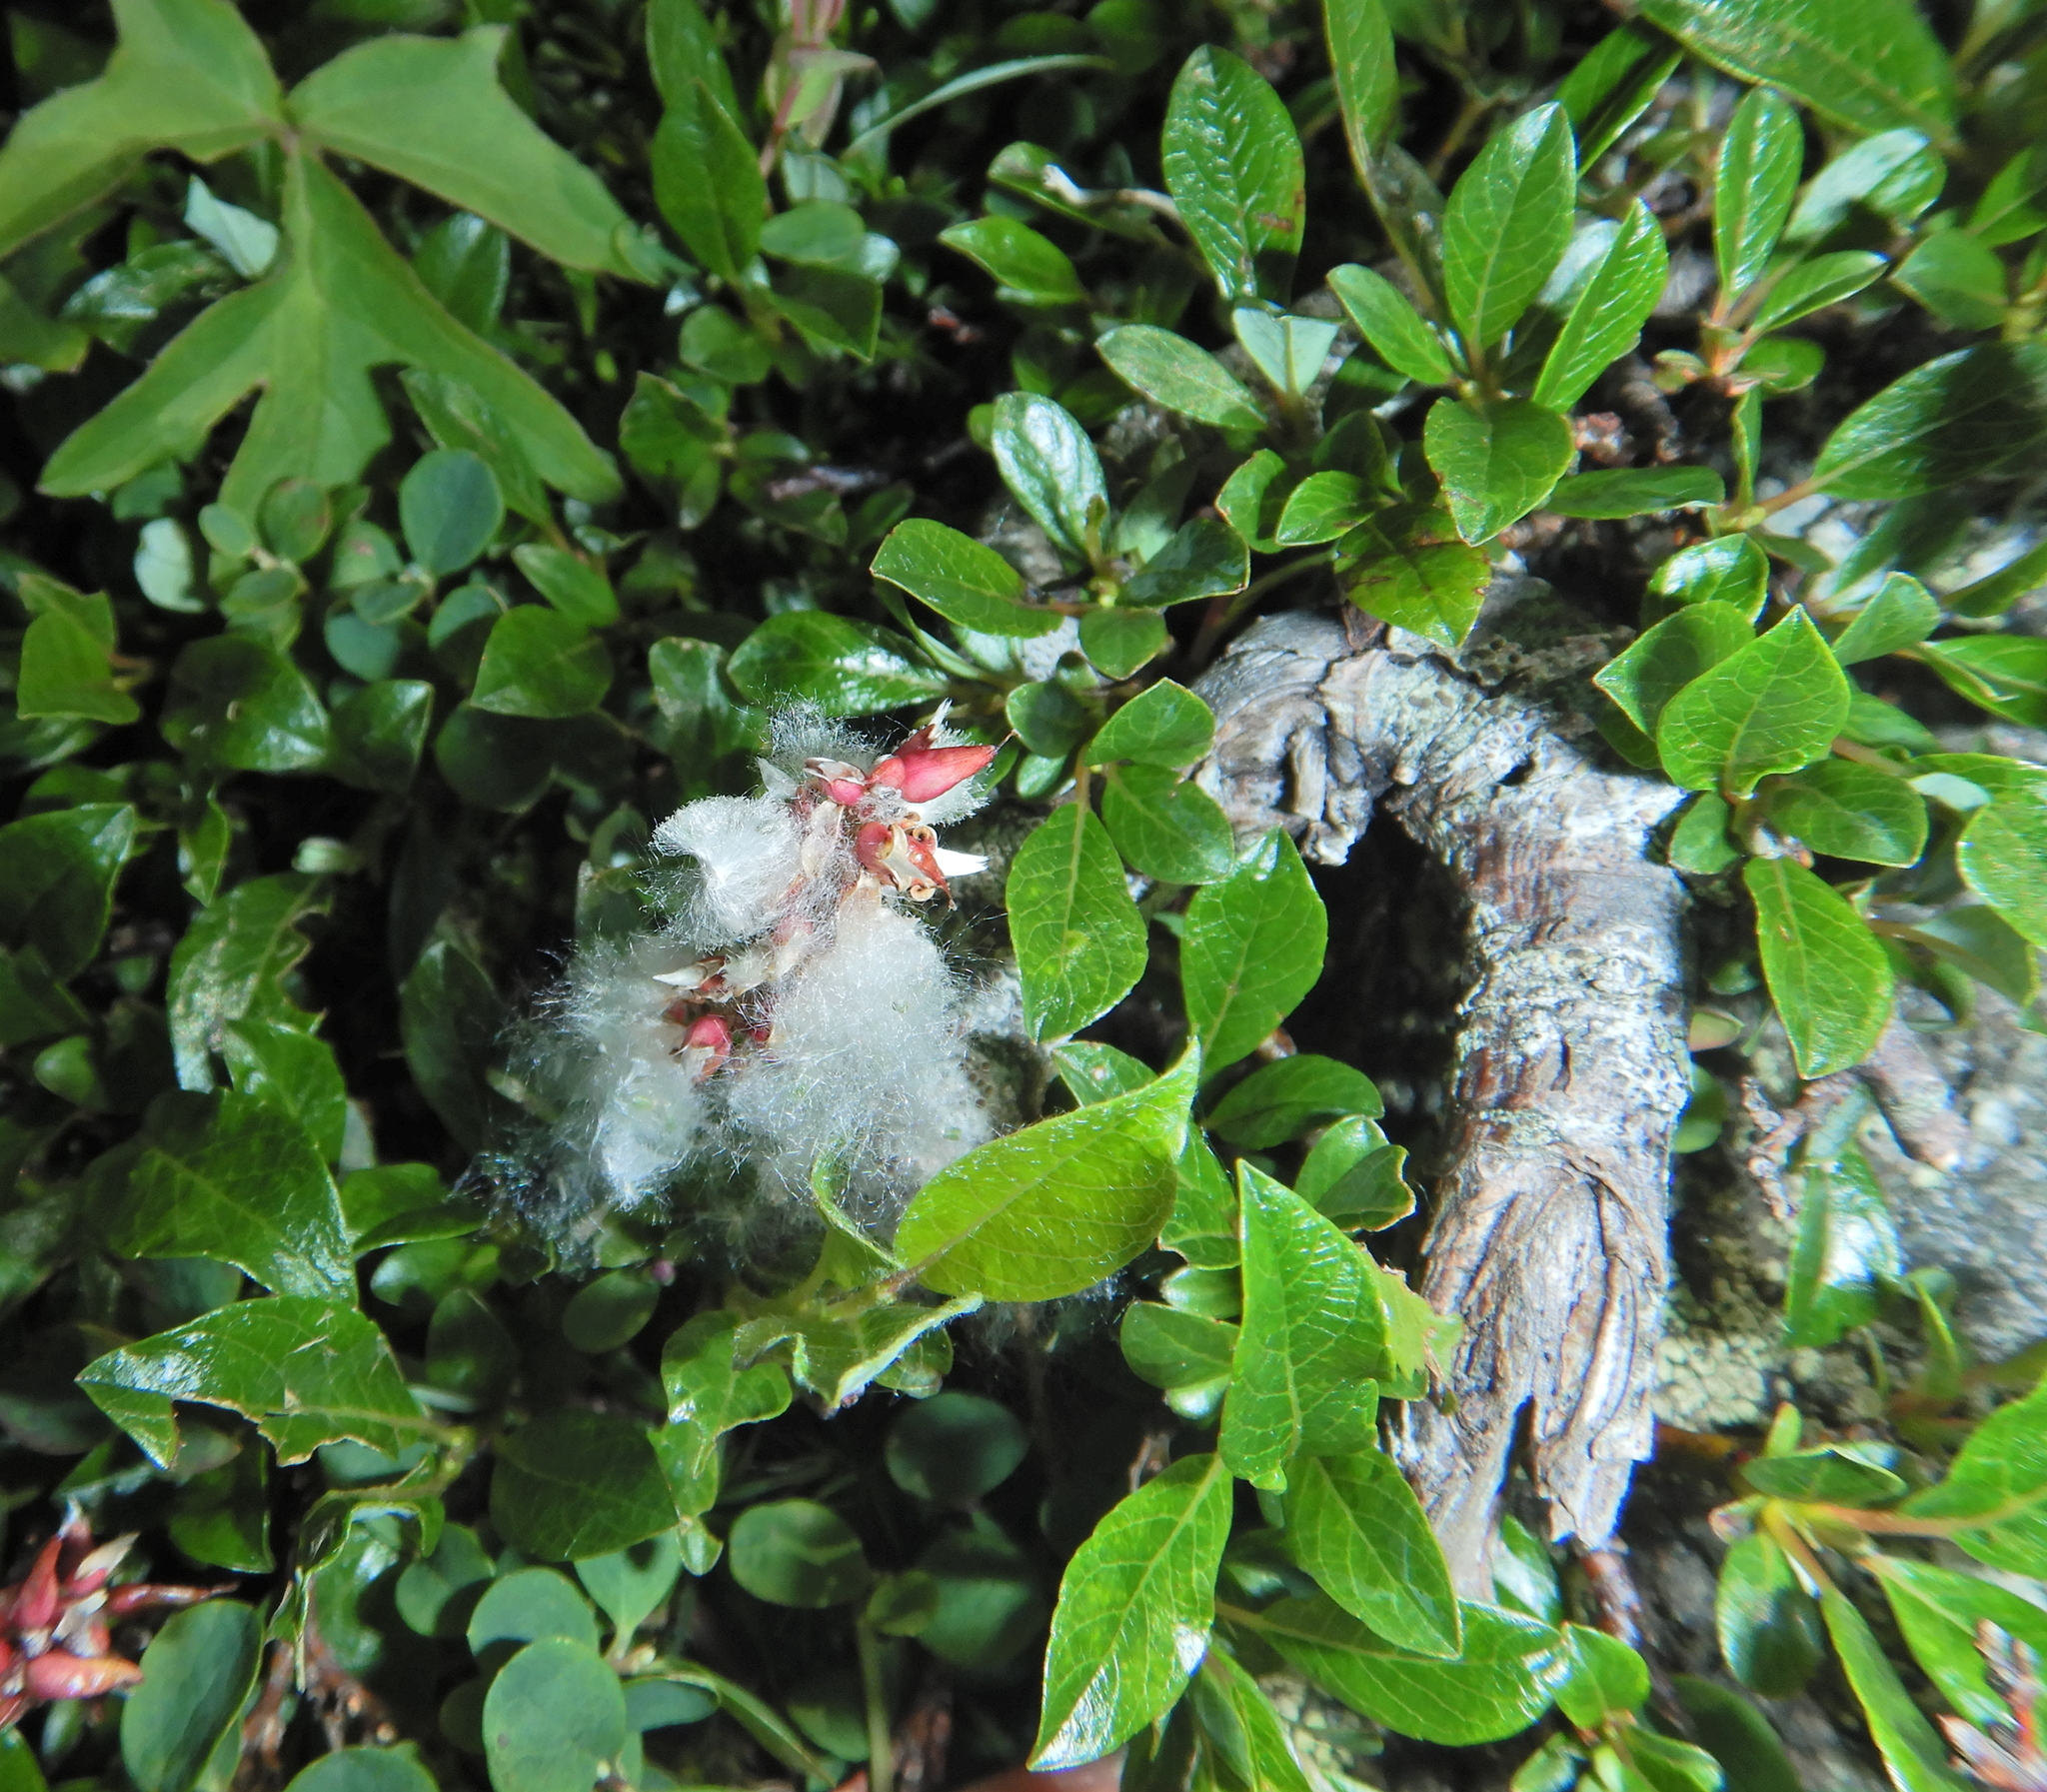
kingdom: Plantae
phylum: Tracheophyta
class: Magnoliopsida
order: Malpighiales
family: Salicaceae
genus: Salix
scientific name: Salix uva-ursi
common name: Bearberry willow
